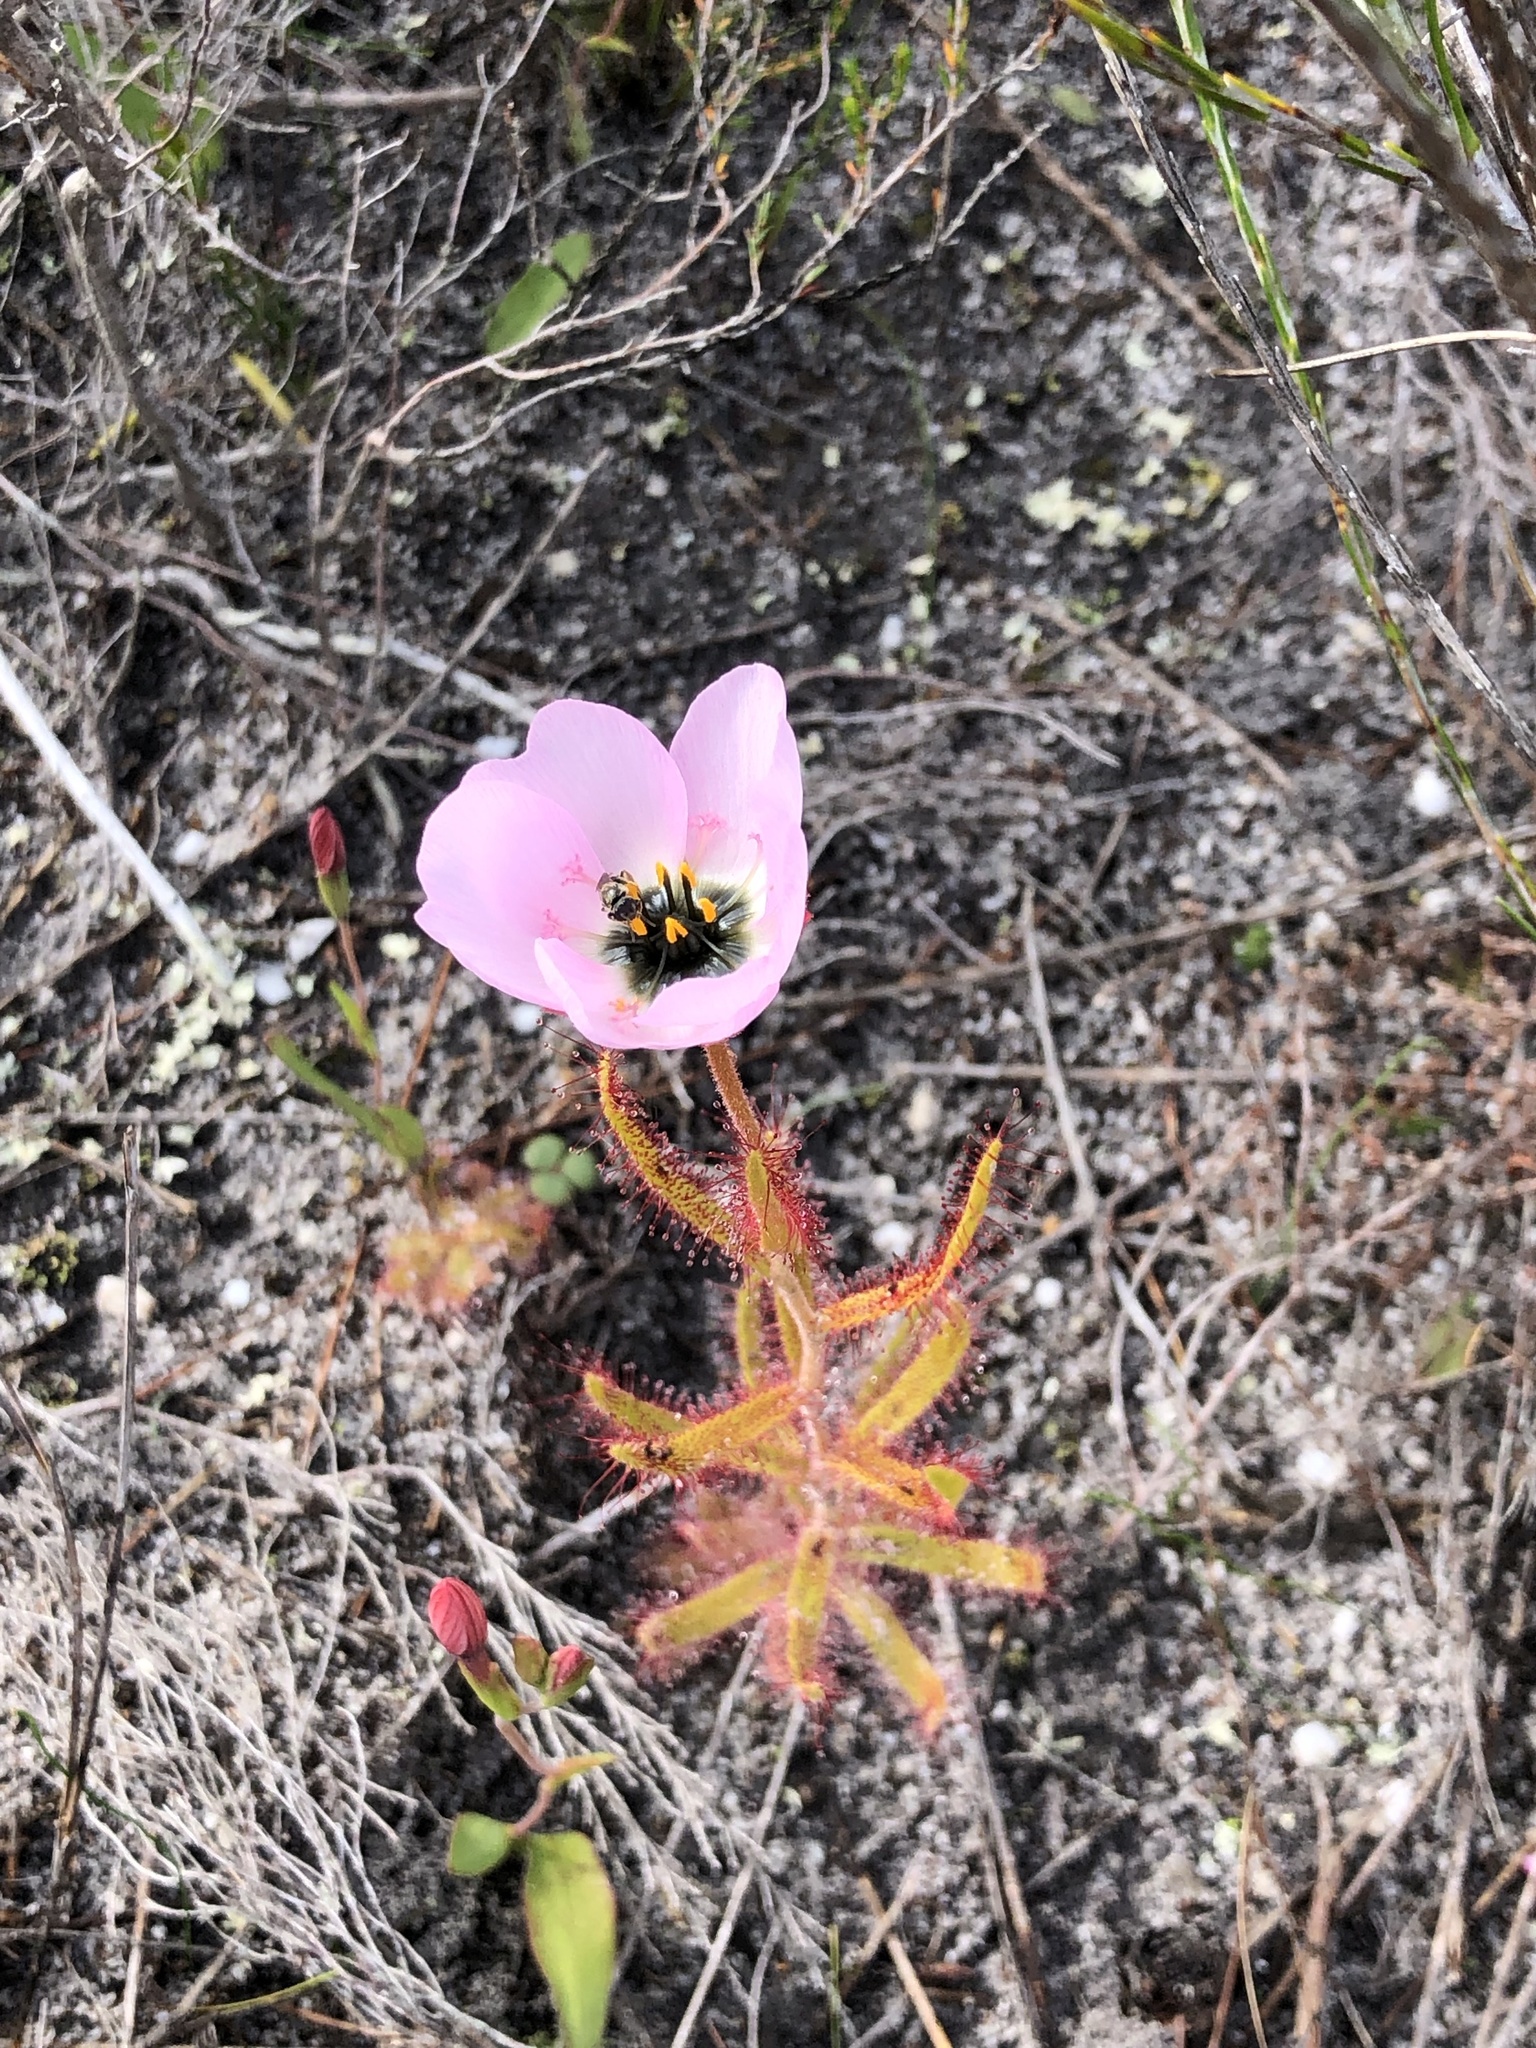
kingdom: Plantae
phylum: Tracheophyta
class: Magnoliopsida
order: Caryophyllales
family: Droseraceae
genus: Drosera
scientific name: Drosera cistiflora
